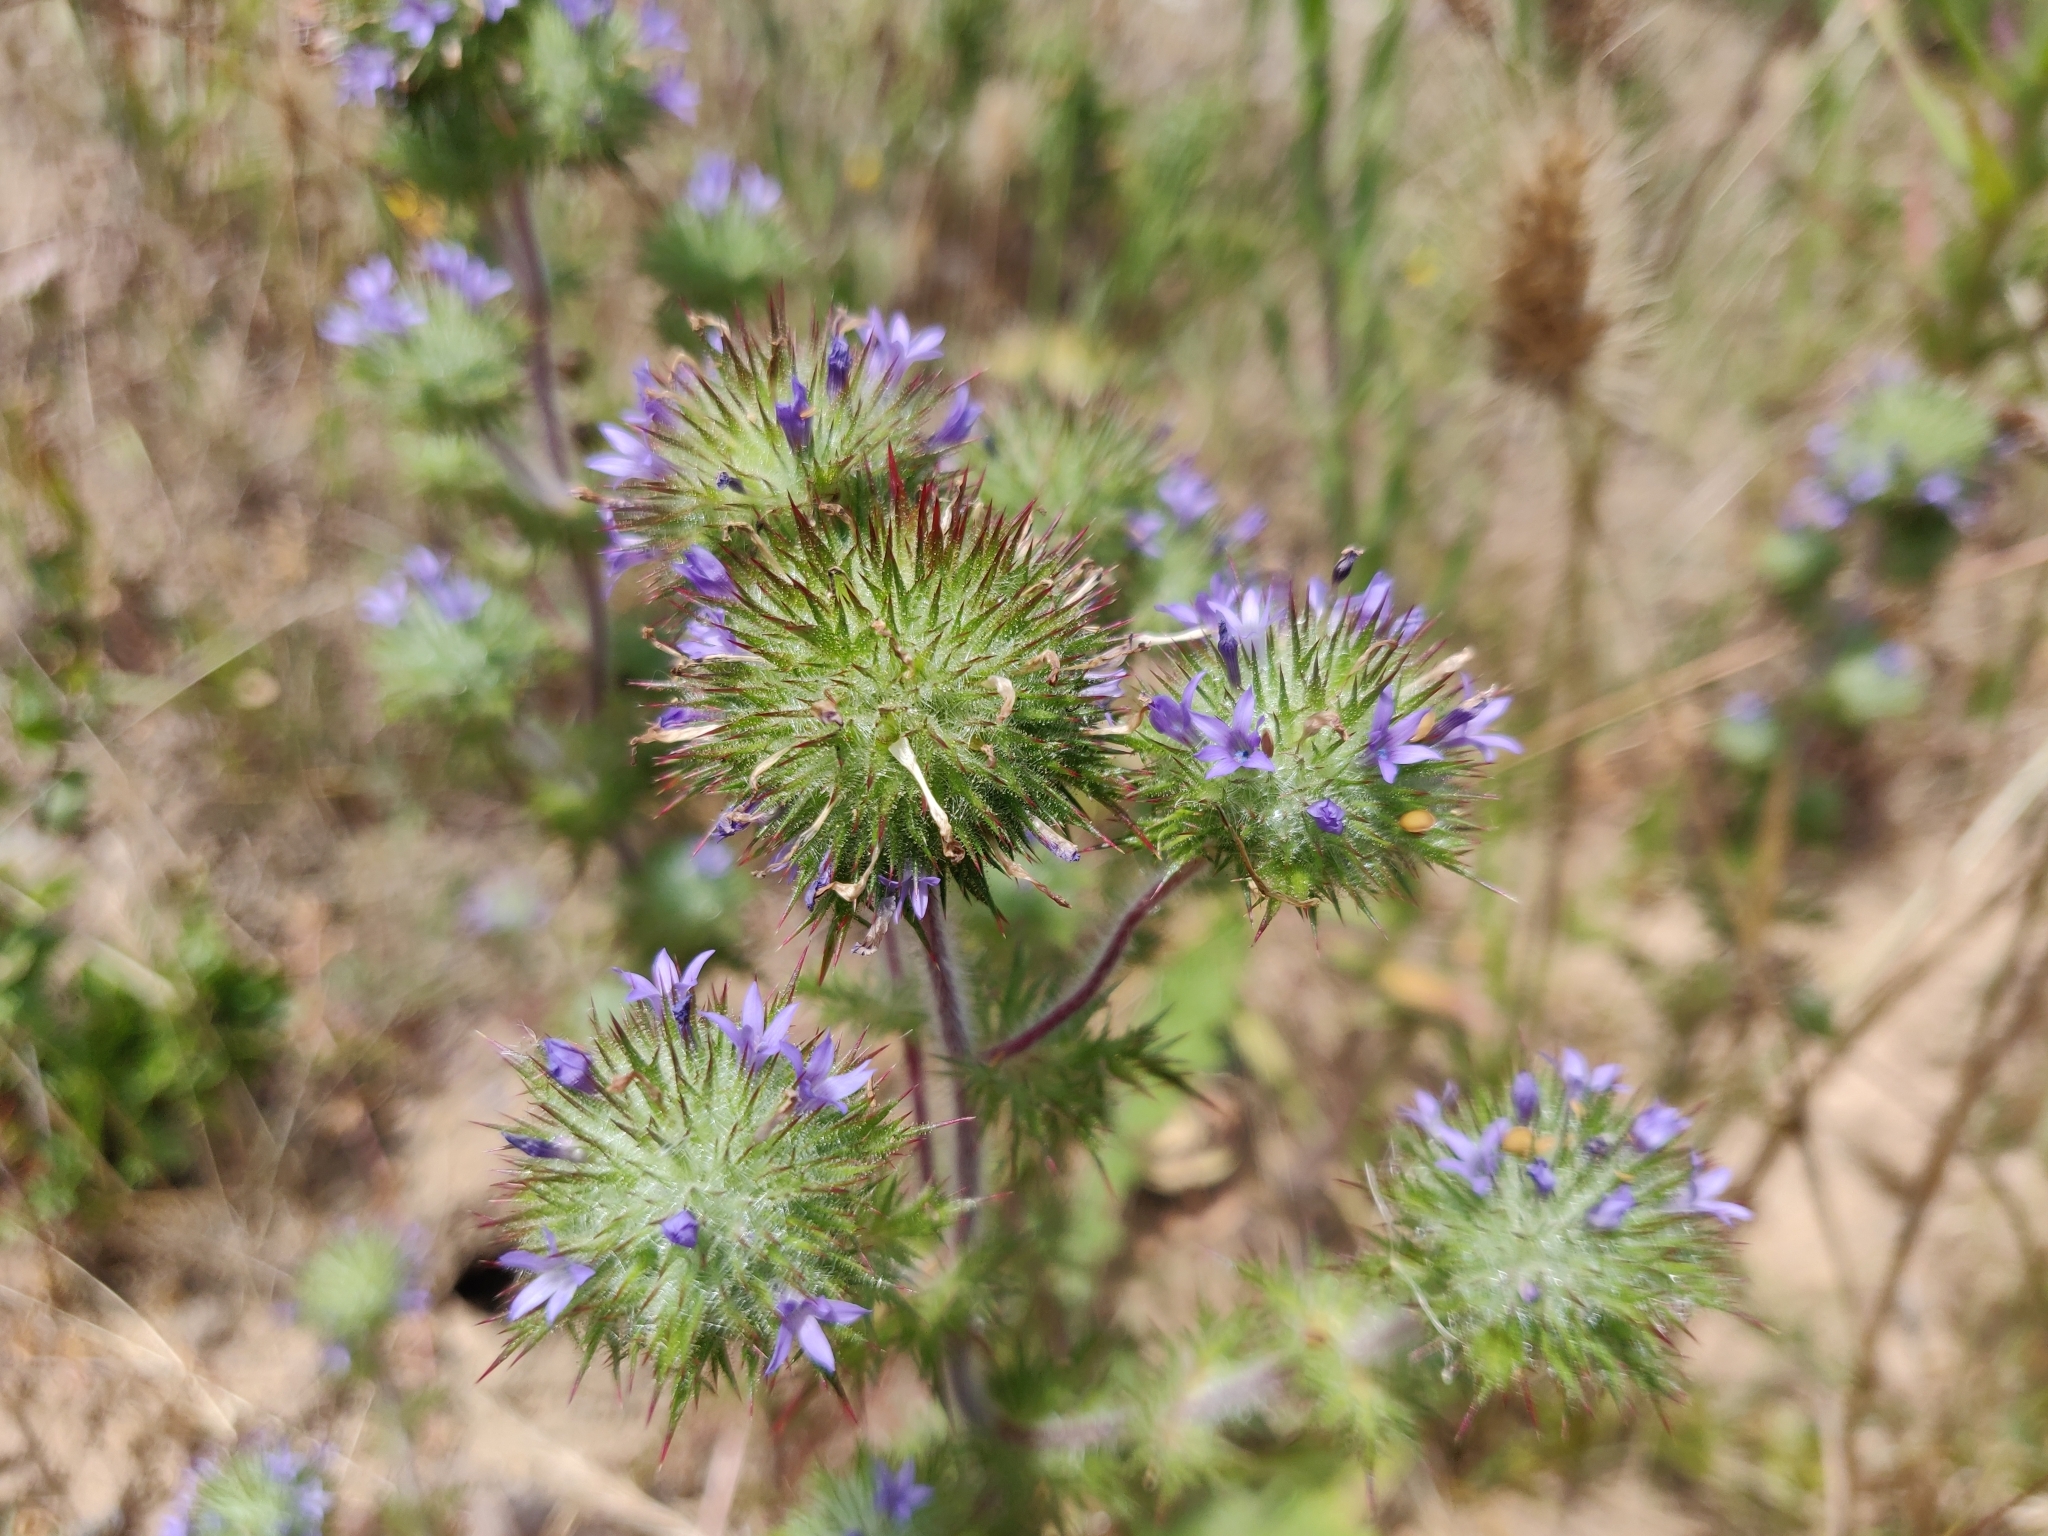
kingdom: Plantae
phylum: Tracheophyta
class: Magnoliopsida
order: Ericales
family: Polemoniaceae
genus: Navarretia
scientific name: Navarretia squarrosa
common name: Skunkweed
